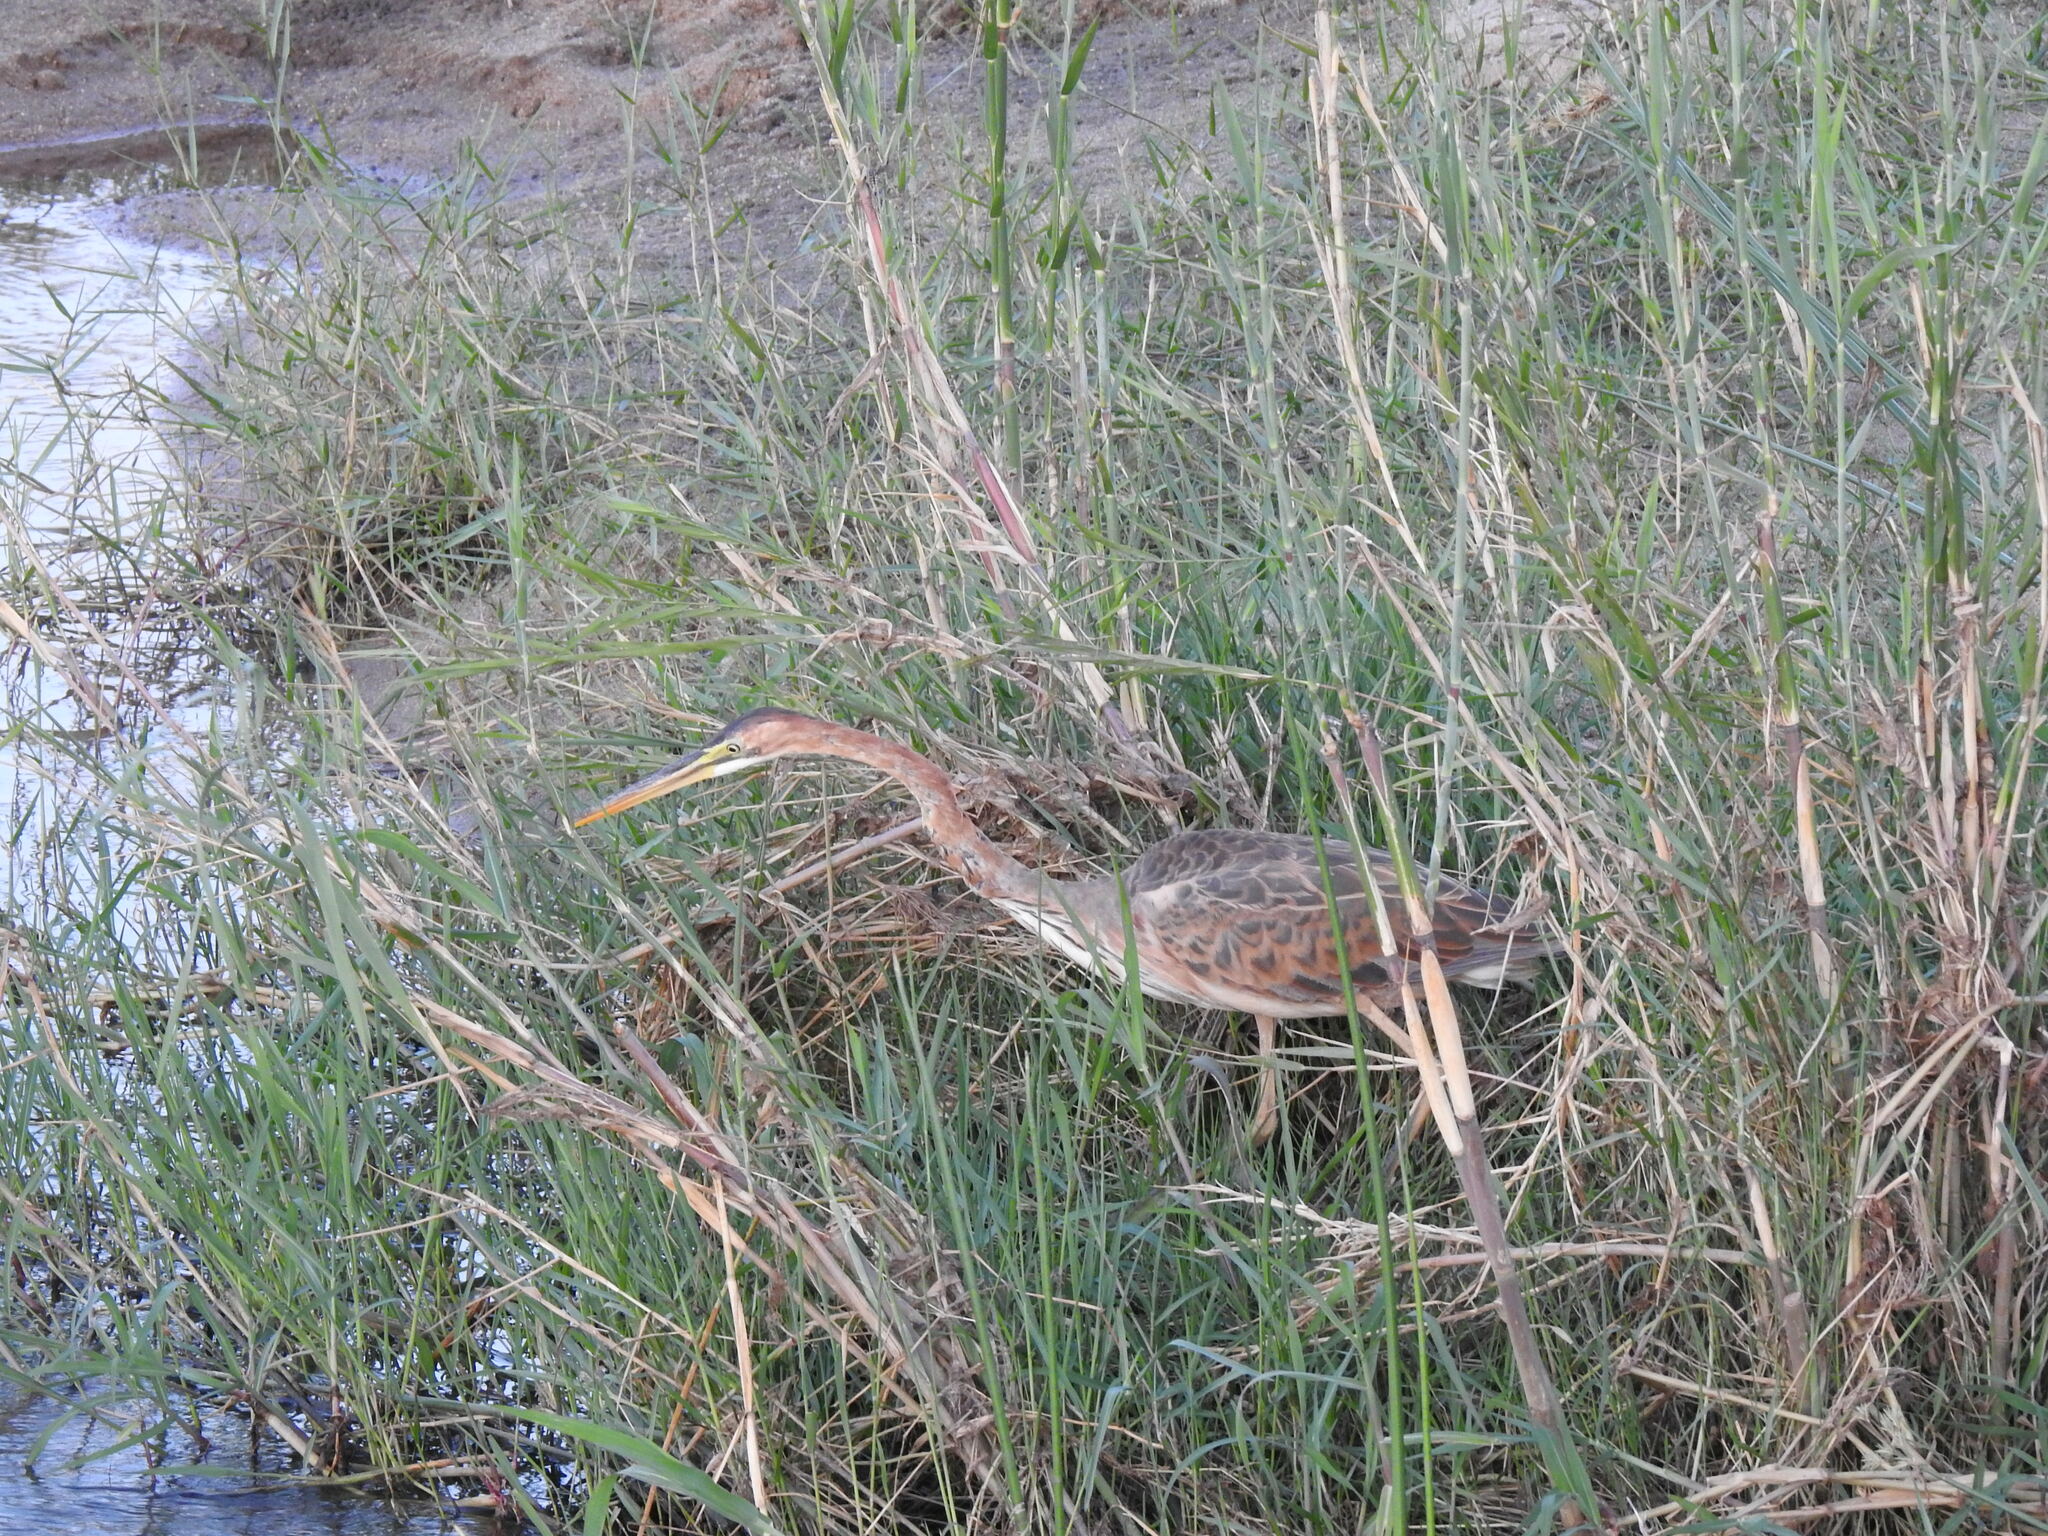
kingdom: Animalia
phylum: Chordata
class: Aves
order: Pelecaniformes
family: Ardeidae
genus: Ardea
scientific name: Ardea purpurea
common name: Purple heron
